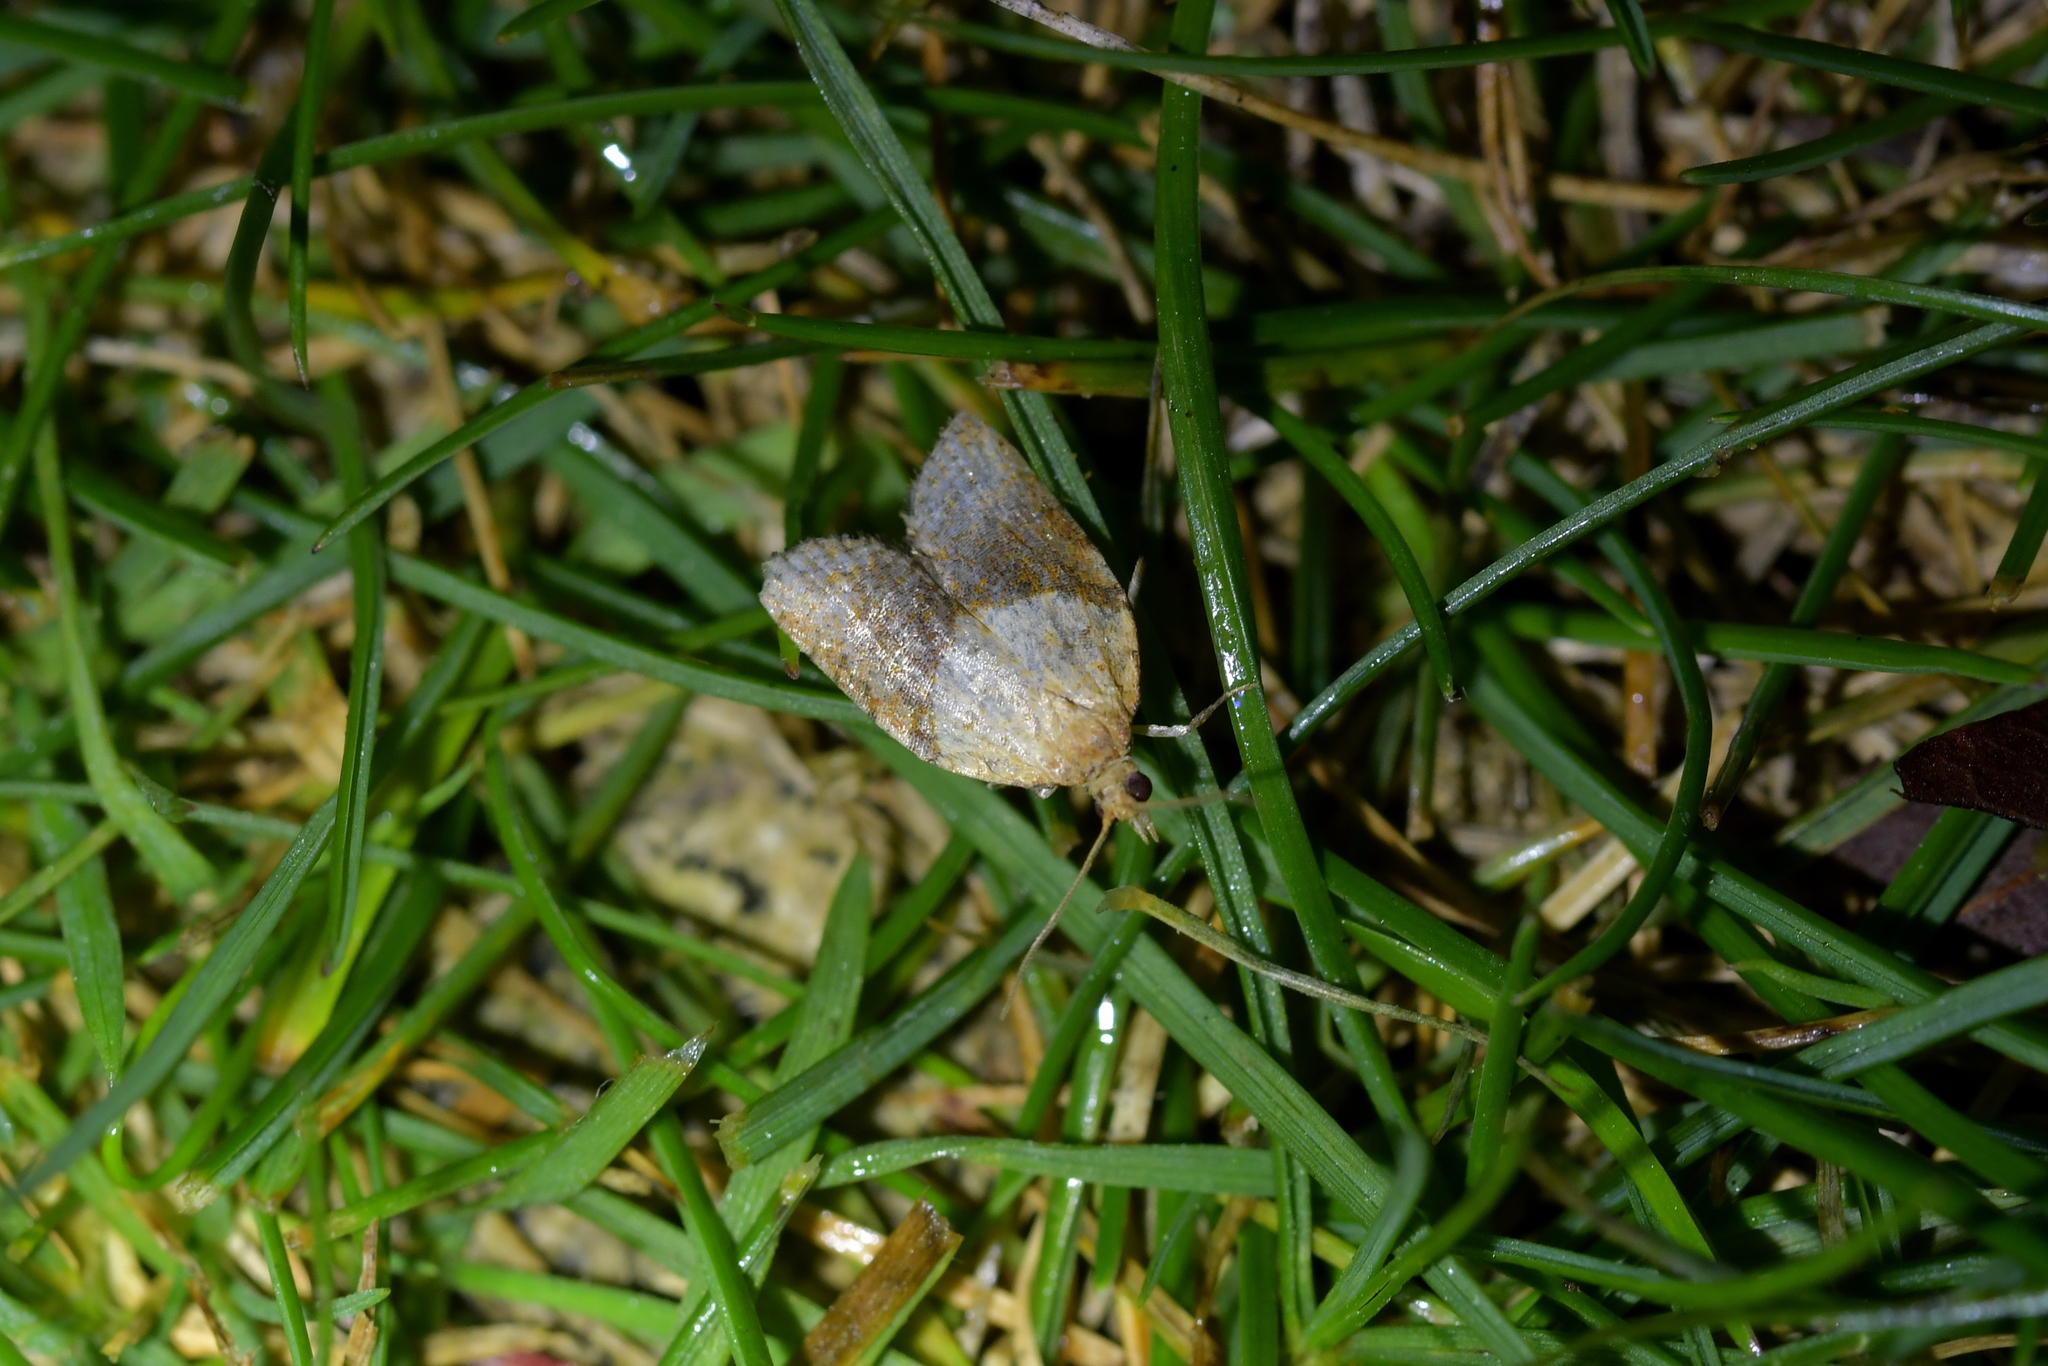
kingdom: Animalia
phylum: Arthropoda
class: Insecta
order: Lepidoptera
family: Tortricidae
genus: Epiphyas
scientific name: Epiphyas postvittana
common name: Light brown apple moth
